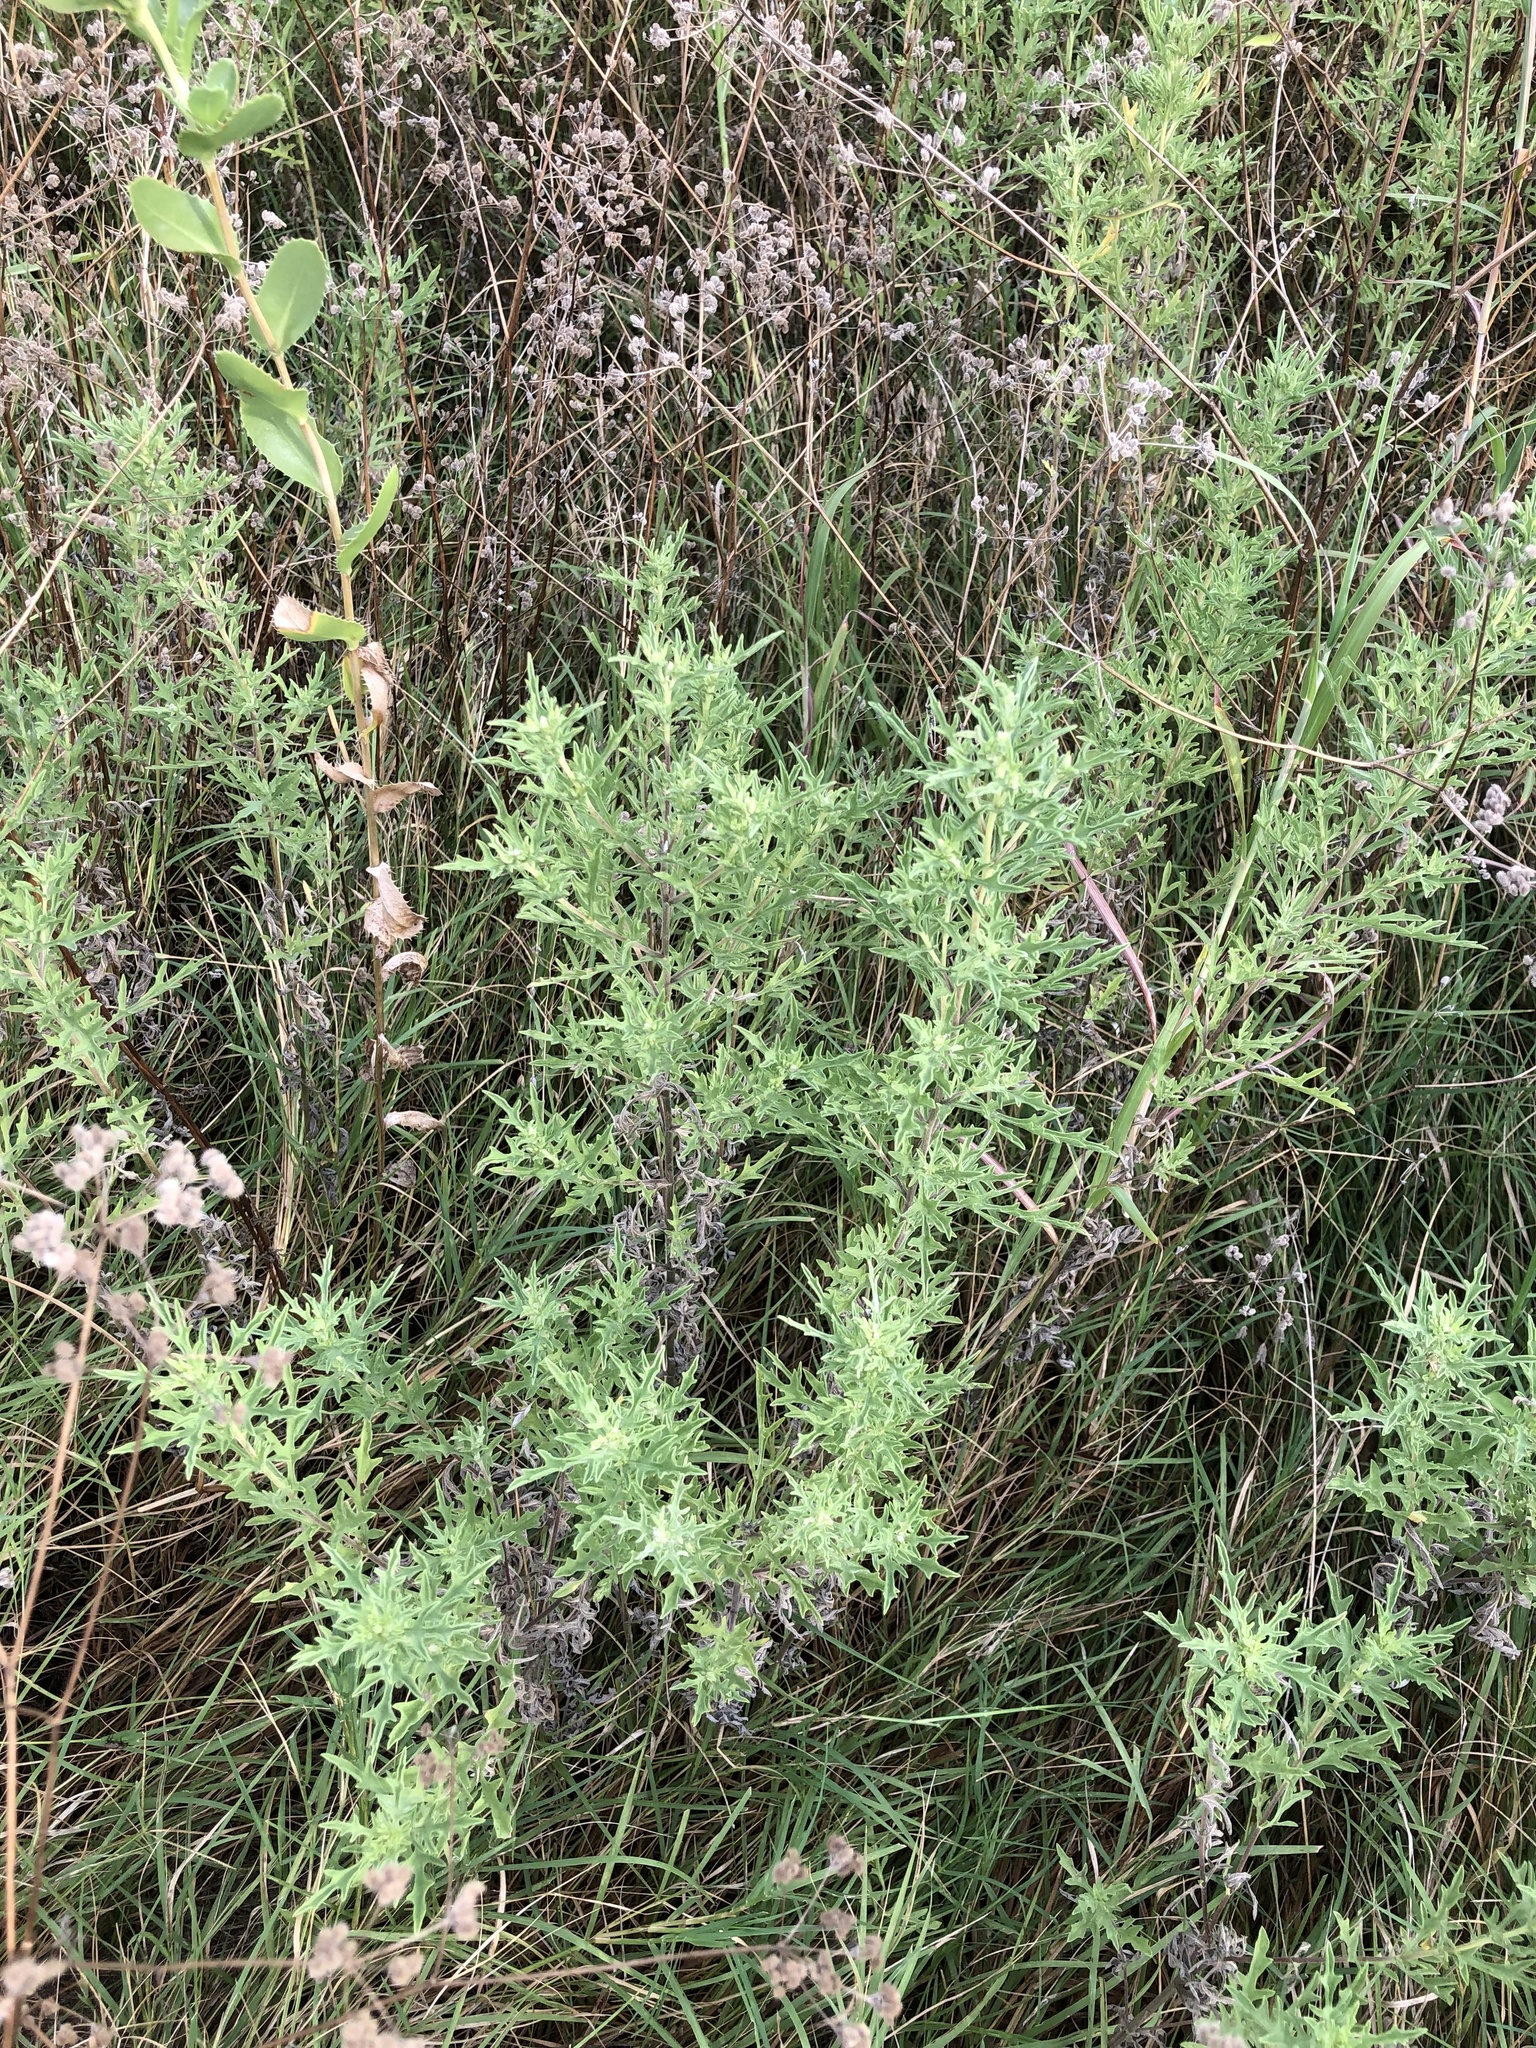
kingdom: Plantae
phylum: Tracheophyta
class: Magnoliopsida
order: Asterales
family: Asteraceae
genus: Ambrosia
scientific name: Ambrosia psilostachya
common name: Perennial ragweed
